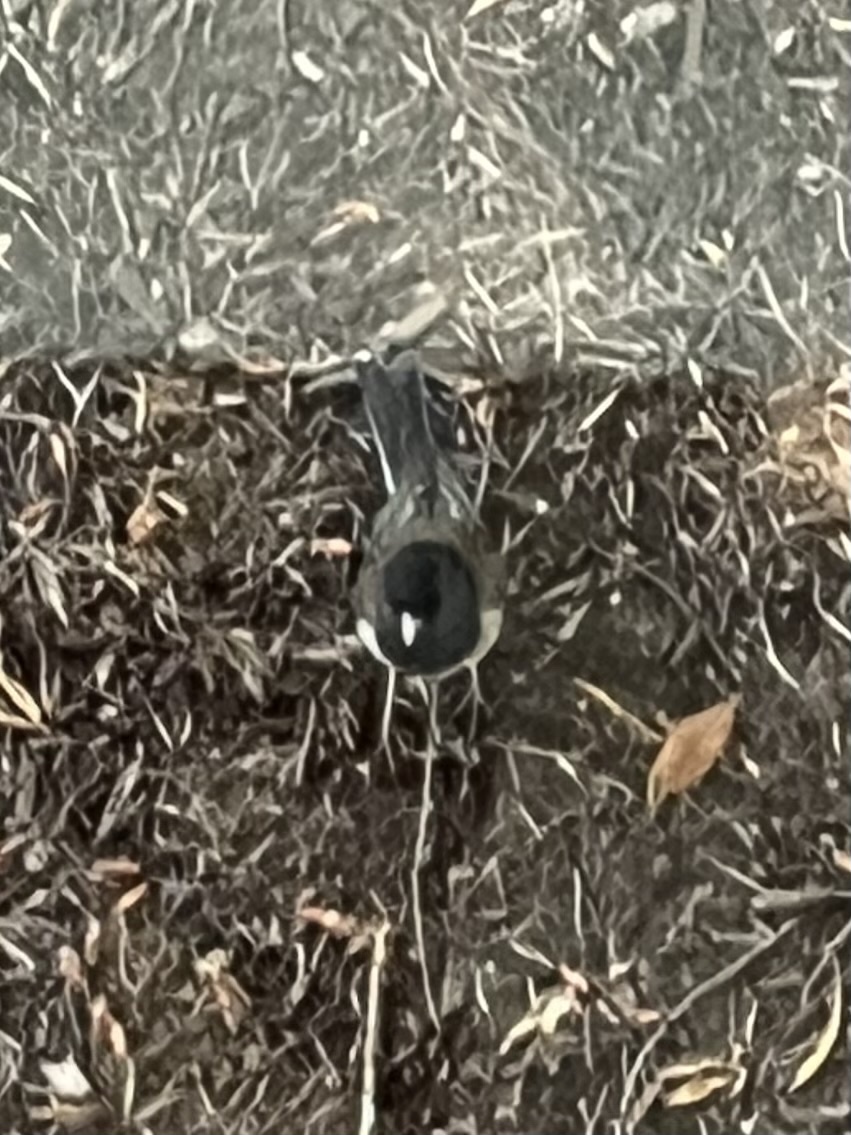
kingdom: Animalia
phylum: Chordata
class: Aves
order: Passeriformes
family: Passerellidae
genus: Junco
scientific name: Junco hyemalis
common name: Dark-eyed junco
